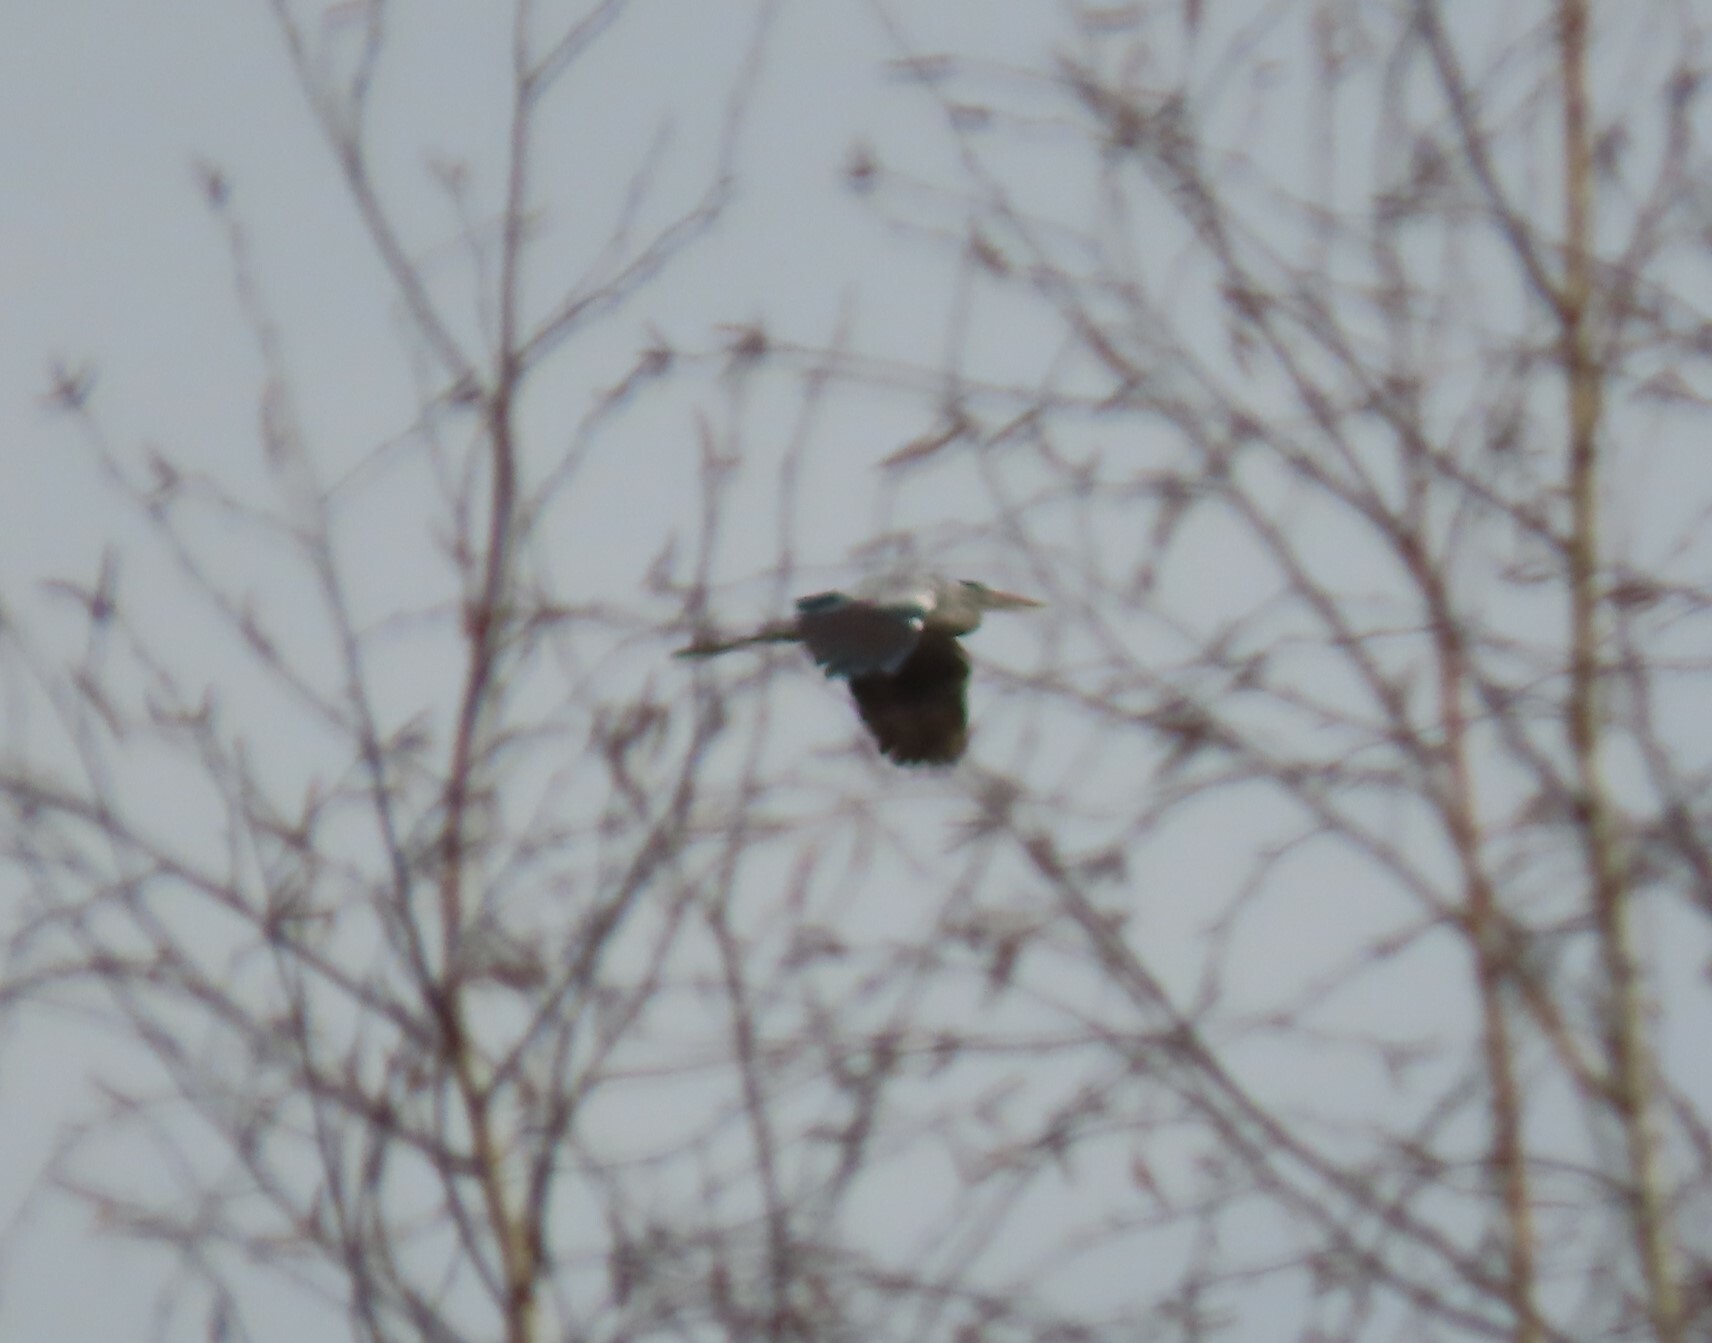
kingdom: Animalia
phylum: Chordata
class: Aves
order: Pelecaniformes
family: Ardeidae
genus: Ardea
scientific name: Ardea cinerea
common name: Grey heron
